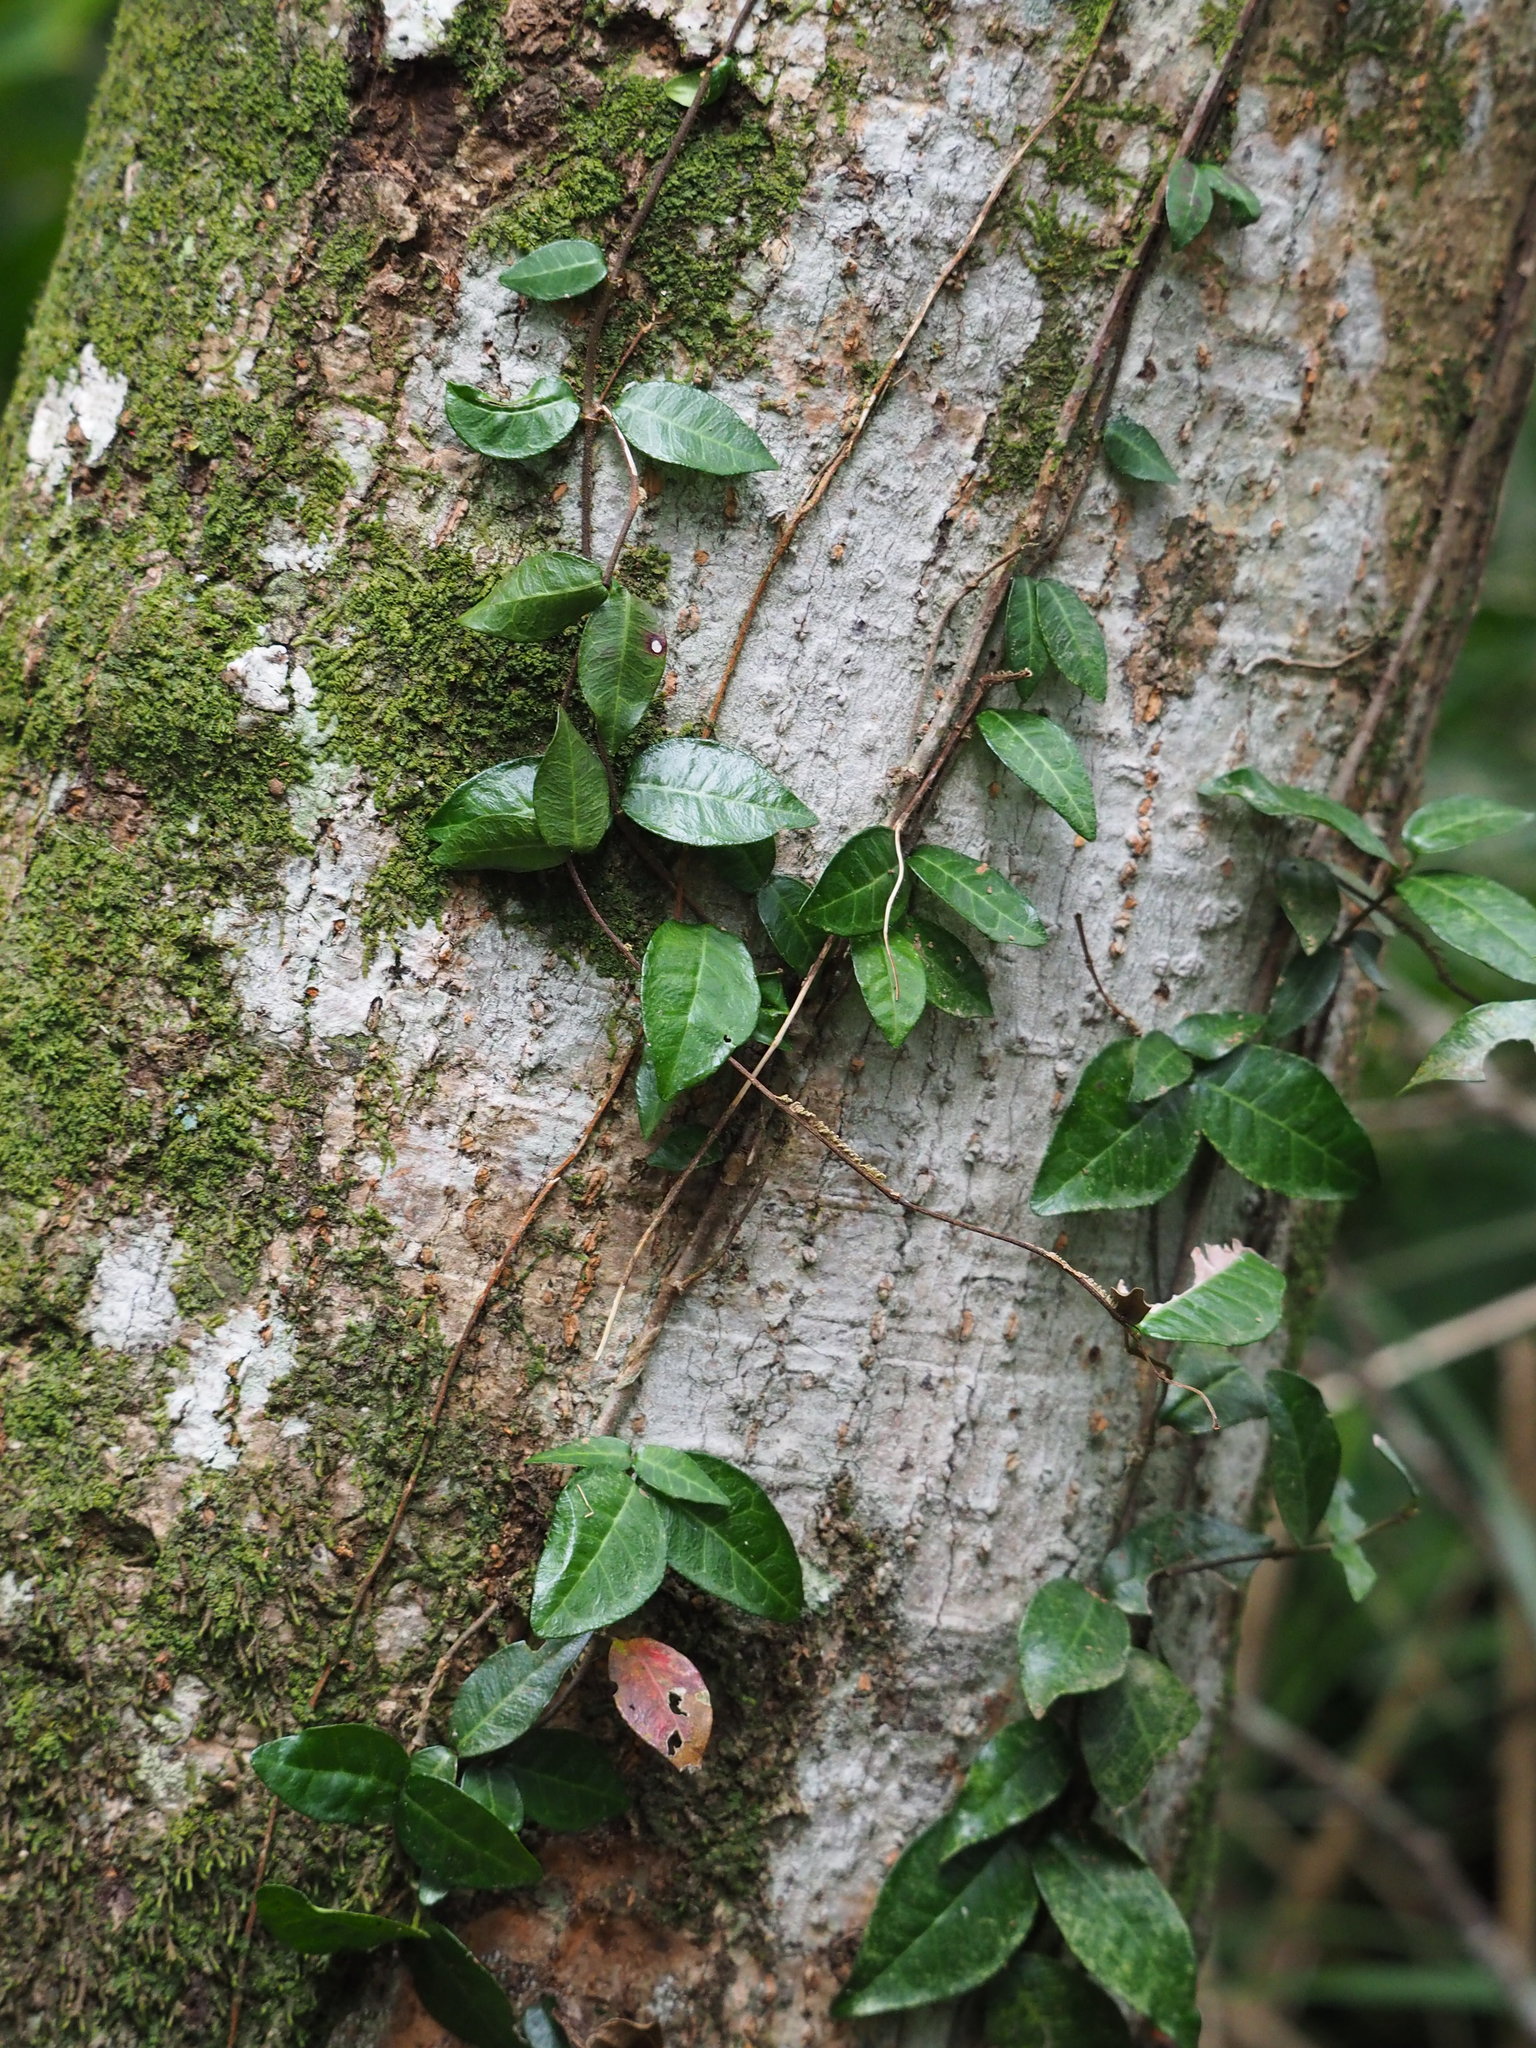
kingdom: Plantae
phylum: Tracheophyta
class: Magnoliopsida
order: Gentianales
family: Apocynaceae
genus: Trachelospermum
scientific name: Trachelospermum jasminoides
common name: Confederate jasmine
